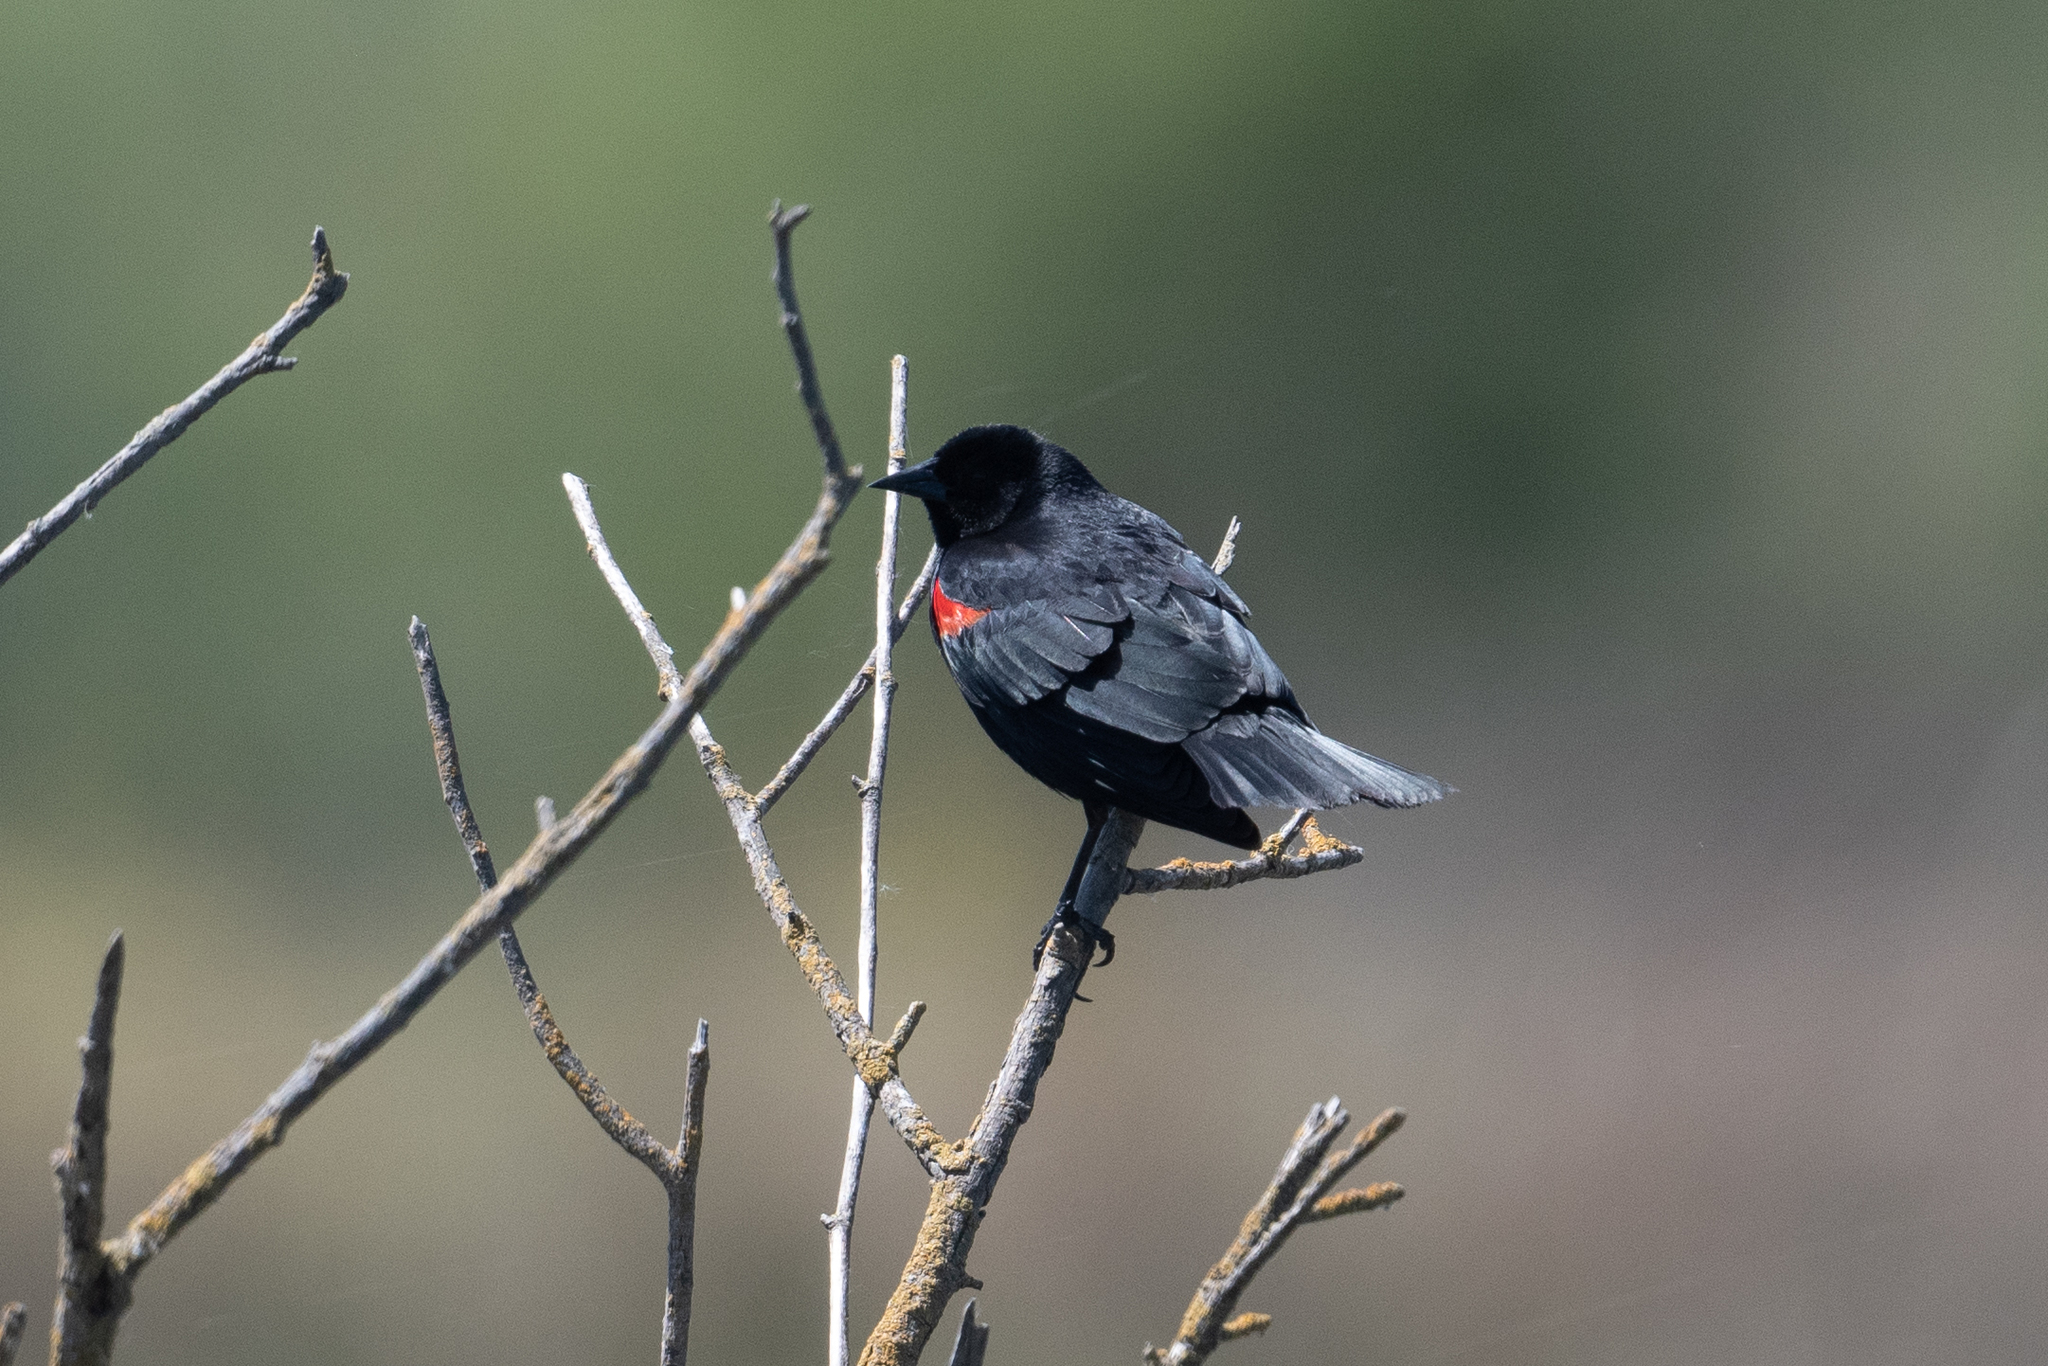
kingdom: Animalia
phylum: Chordata
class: Aves
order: Passeriformes
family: Icteridae
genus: Agelaius
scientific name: Agelaius phoeniceus
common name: Red-winged blackbird
